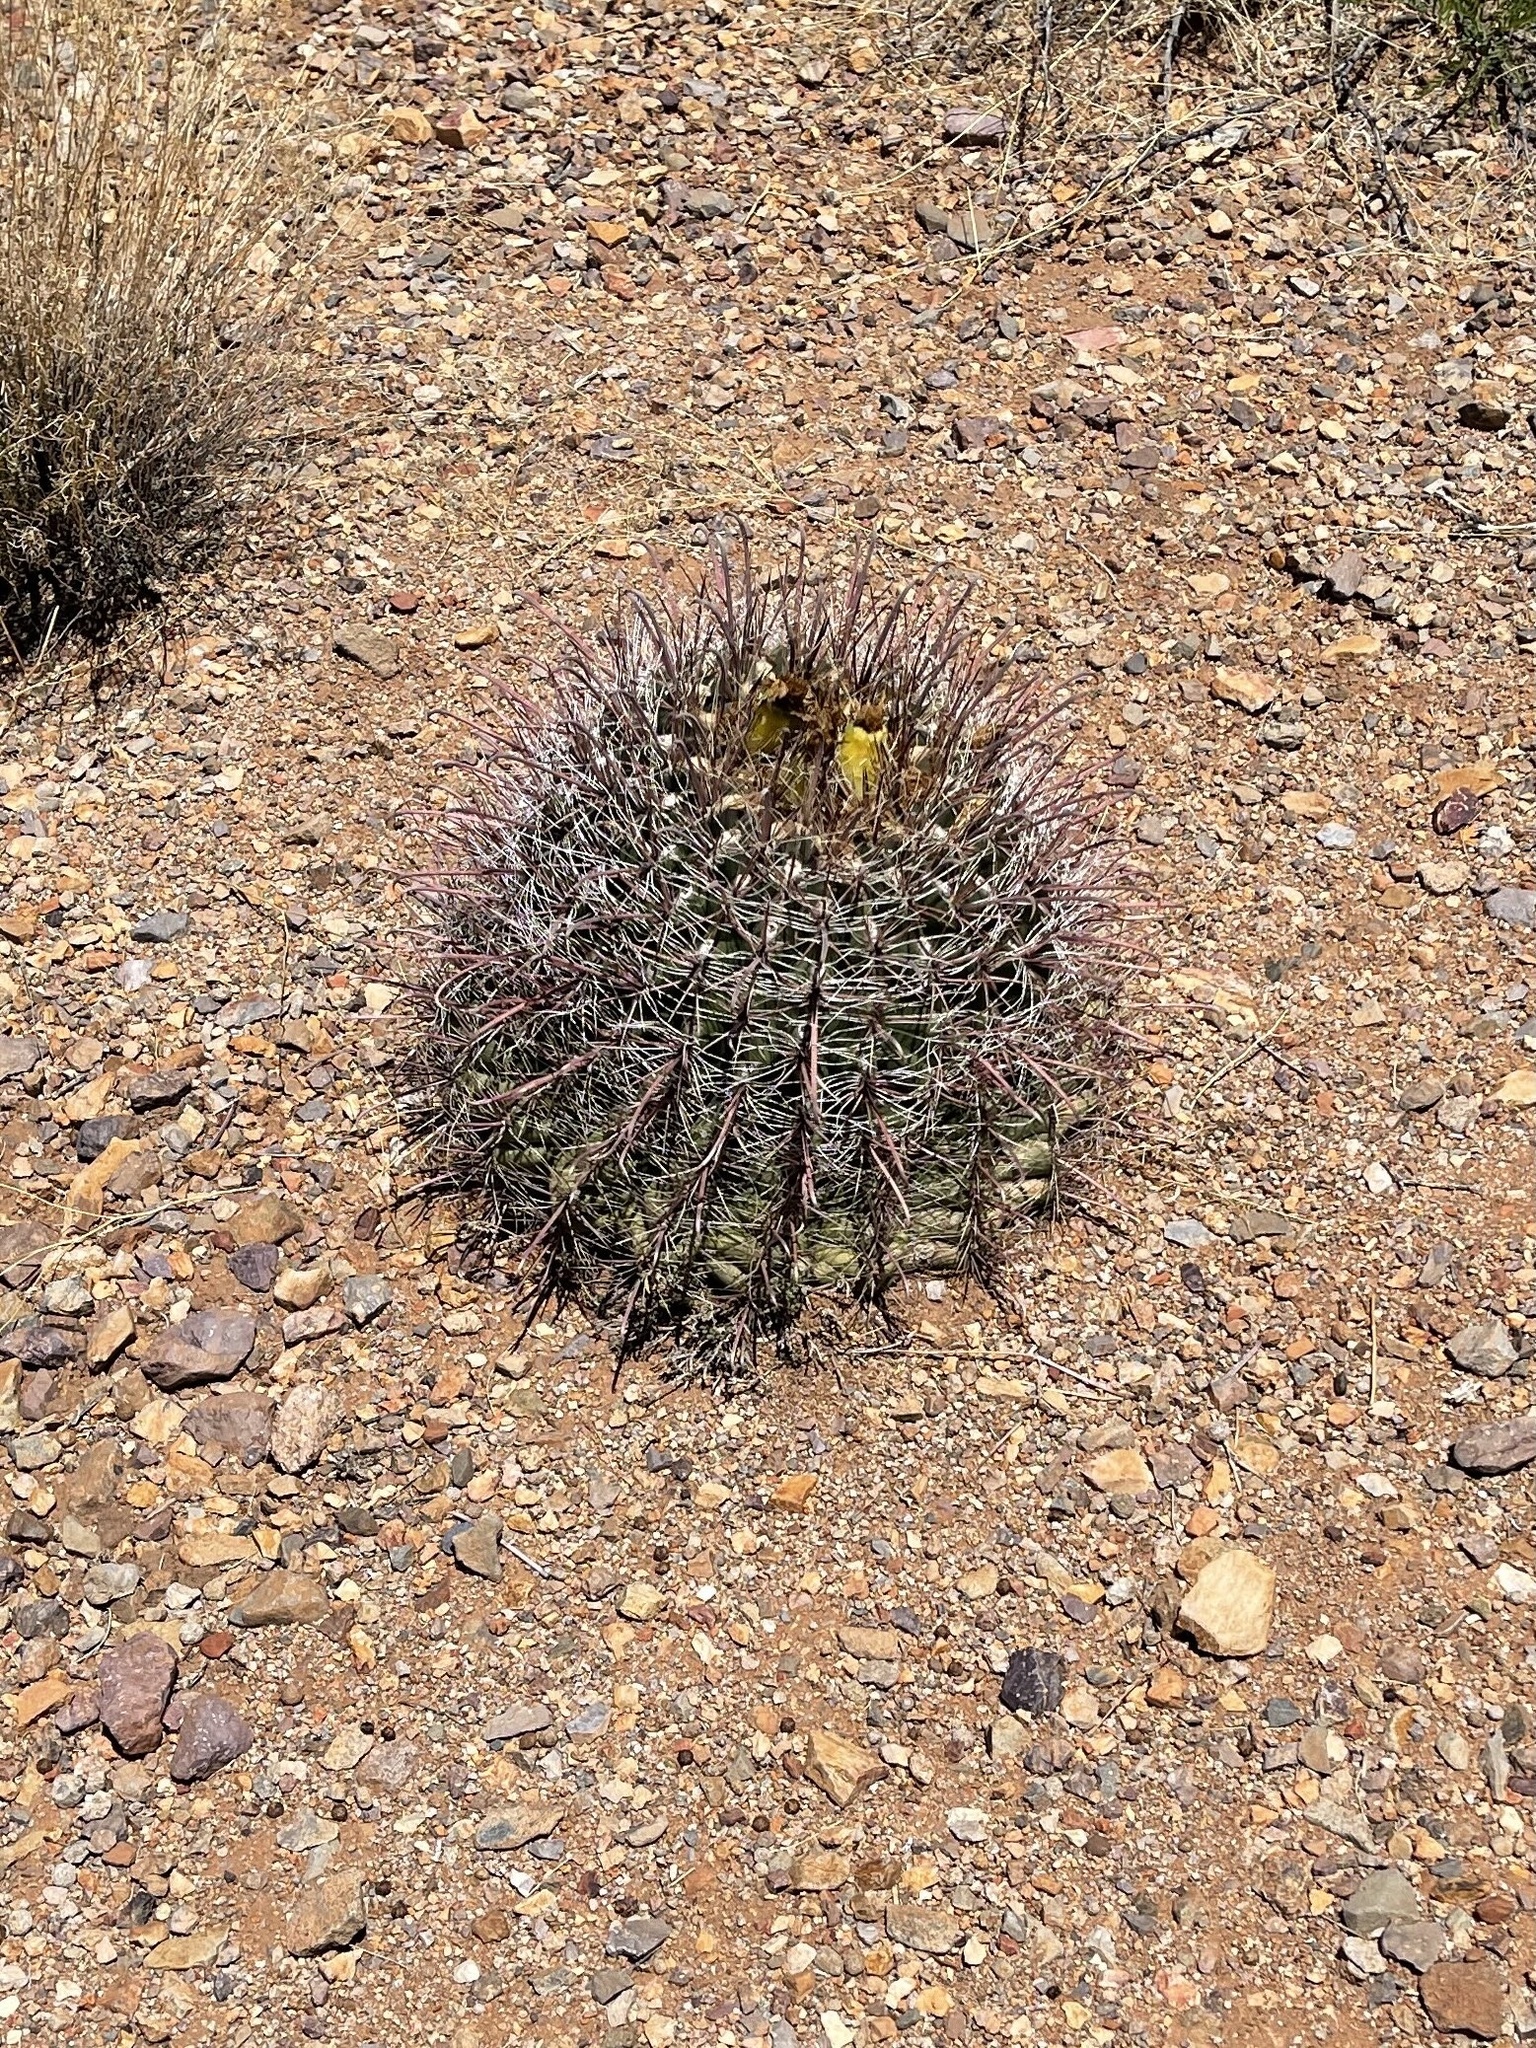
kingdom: Plantae
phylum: Tracheophyta
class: Magnoliopsida
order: Caryophyllales
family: Cactaceae
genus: Ferocactus
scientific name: Ferocactus wislizeni
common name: Candy barrel cactus
